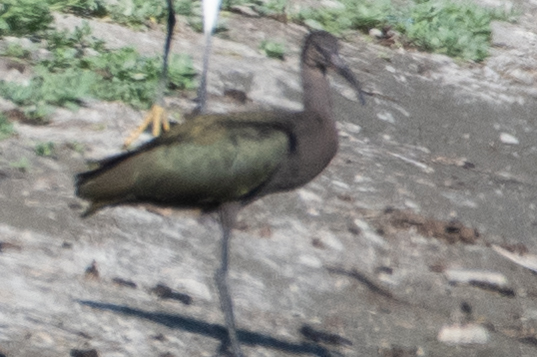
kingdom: Animalia
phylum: Chordata
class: Aves
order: Pelecaniformes
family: Threskiornithidae
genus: Plegadis
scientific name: Plegadis chihi
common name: White-faced ibis
